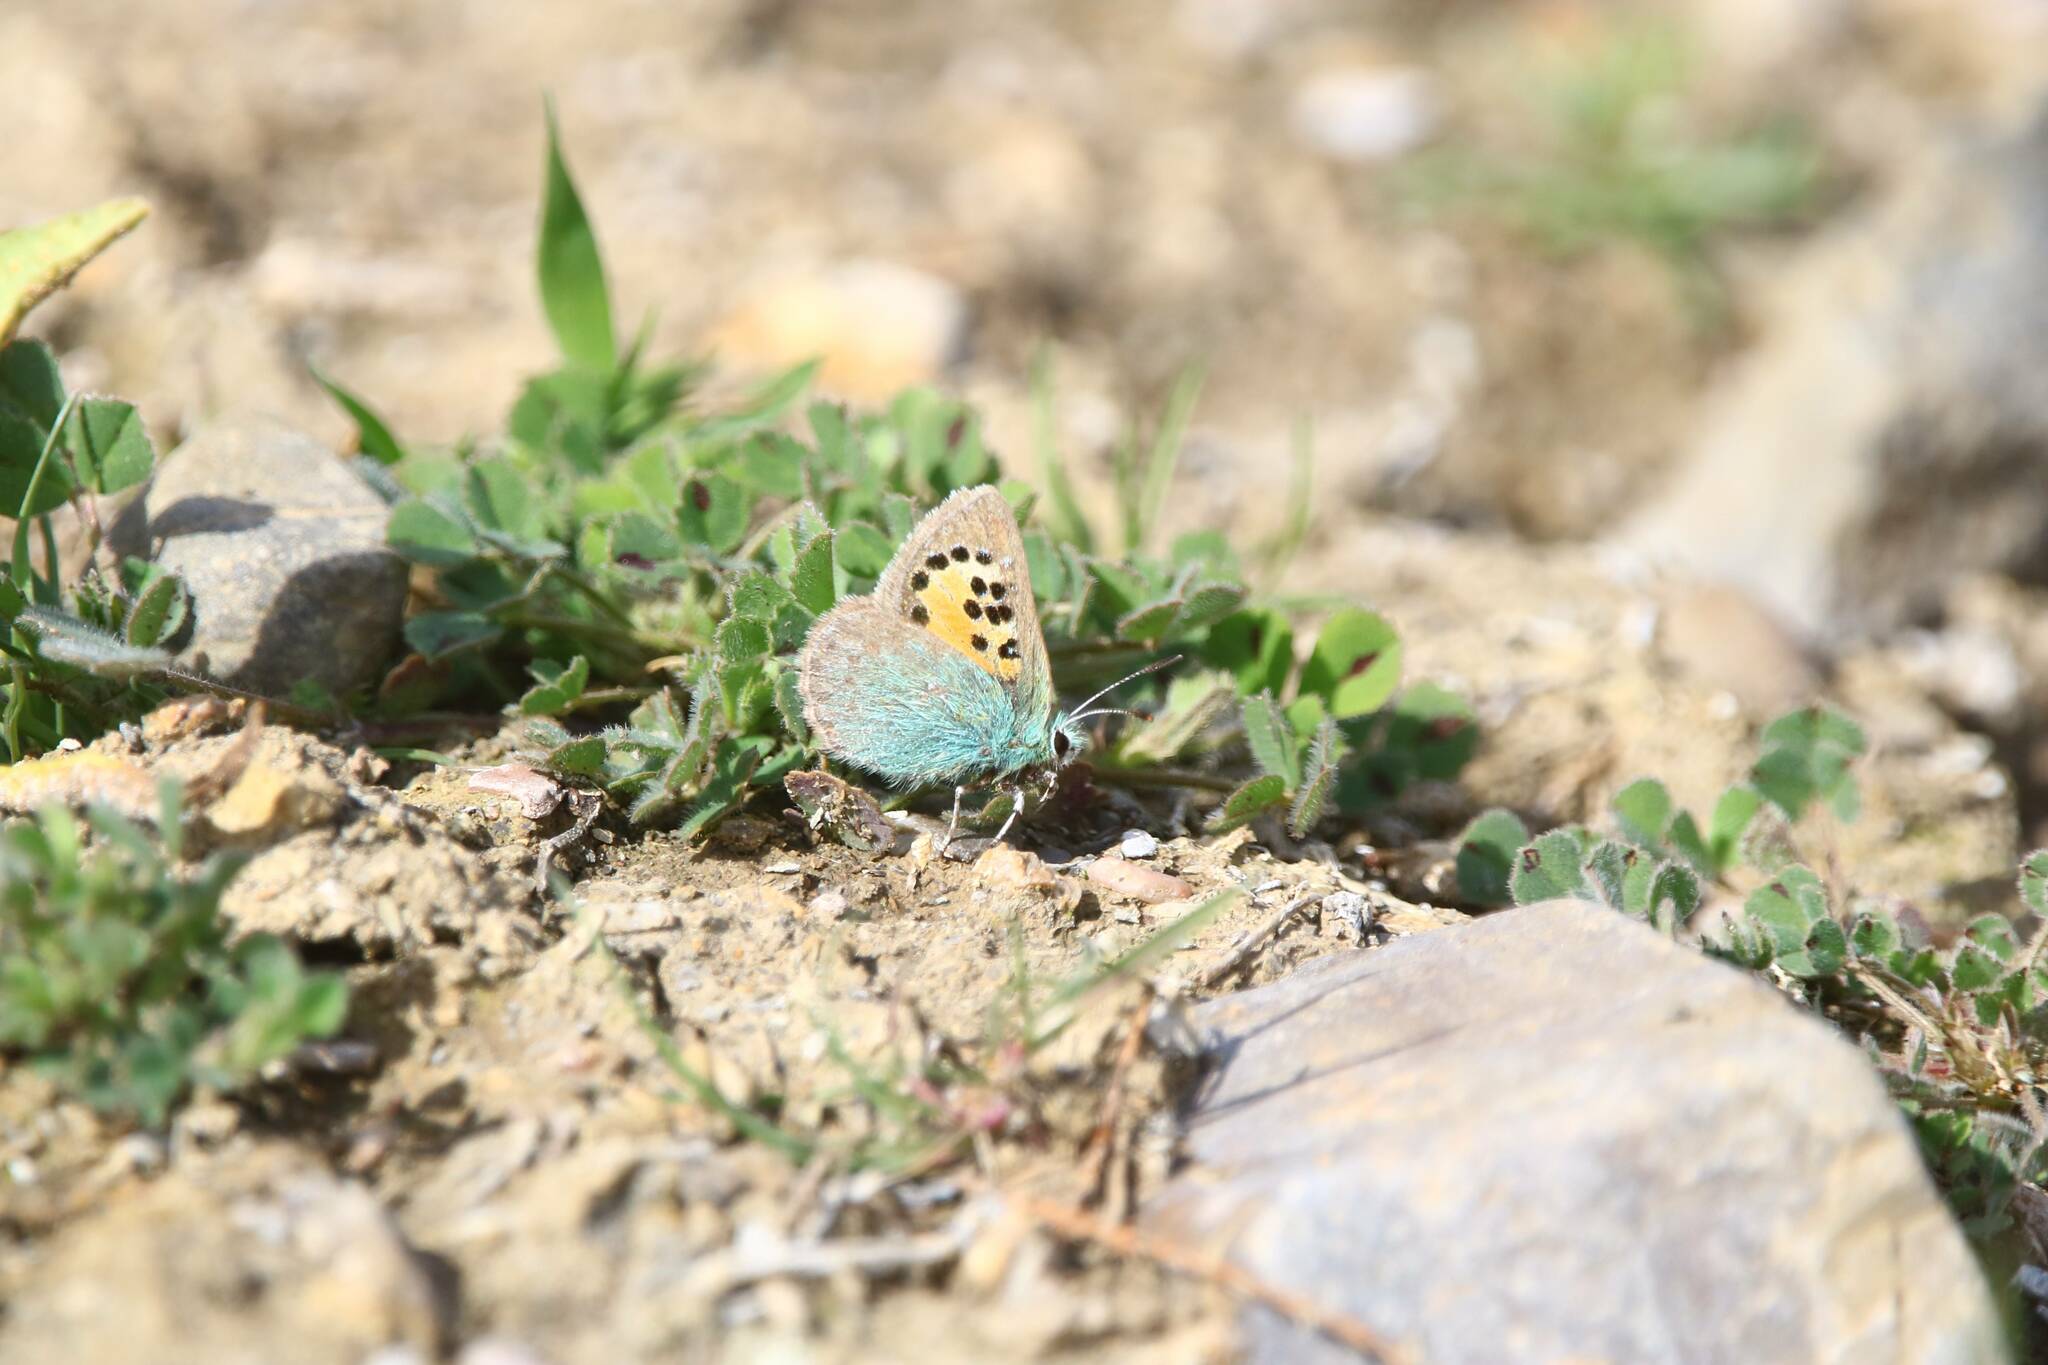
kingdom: Animalia
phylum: Arthropoda
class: Insecta
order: Lepidoptera
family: Lycaenidae
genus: Tomares
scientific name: Tomares ballus
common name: Provence hairstreak
